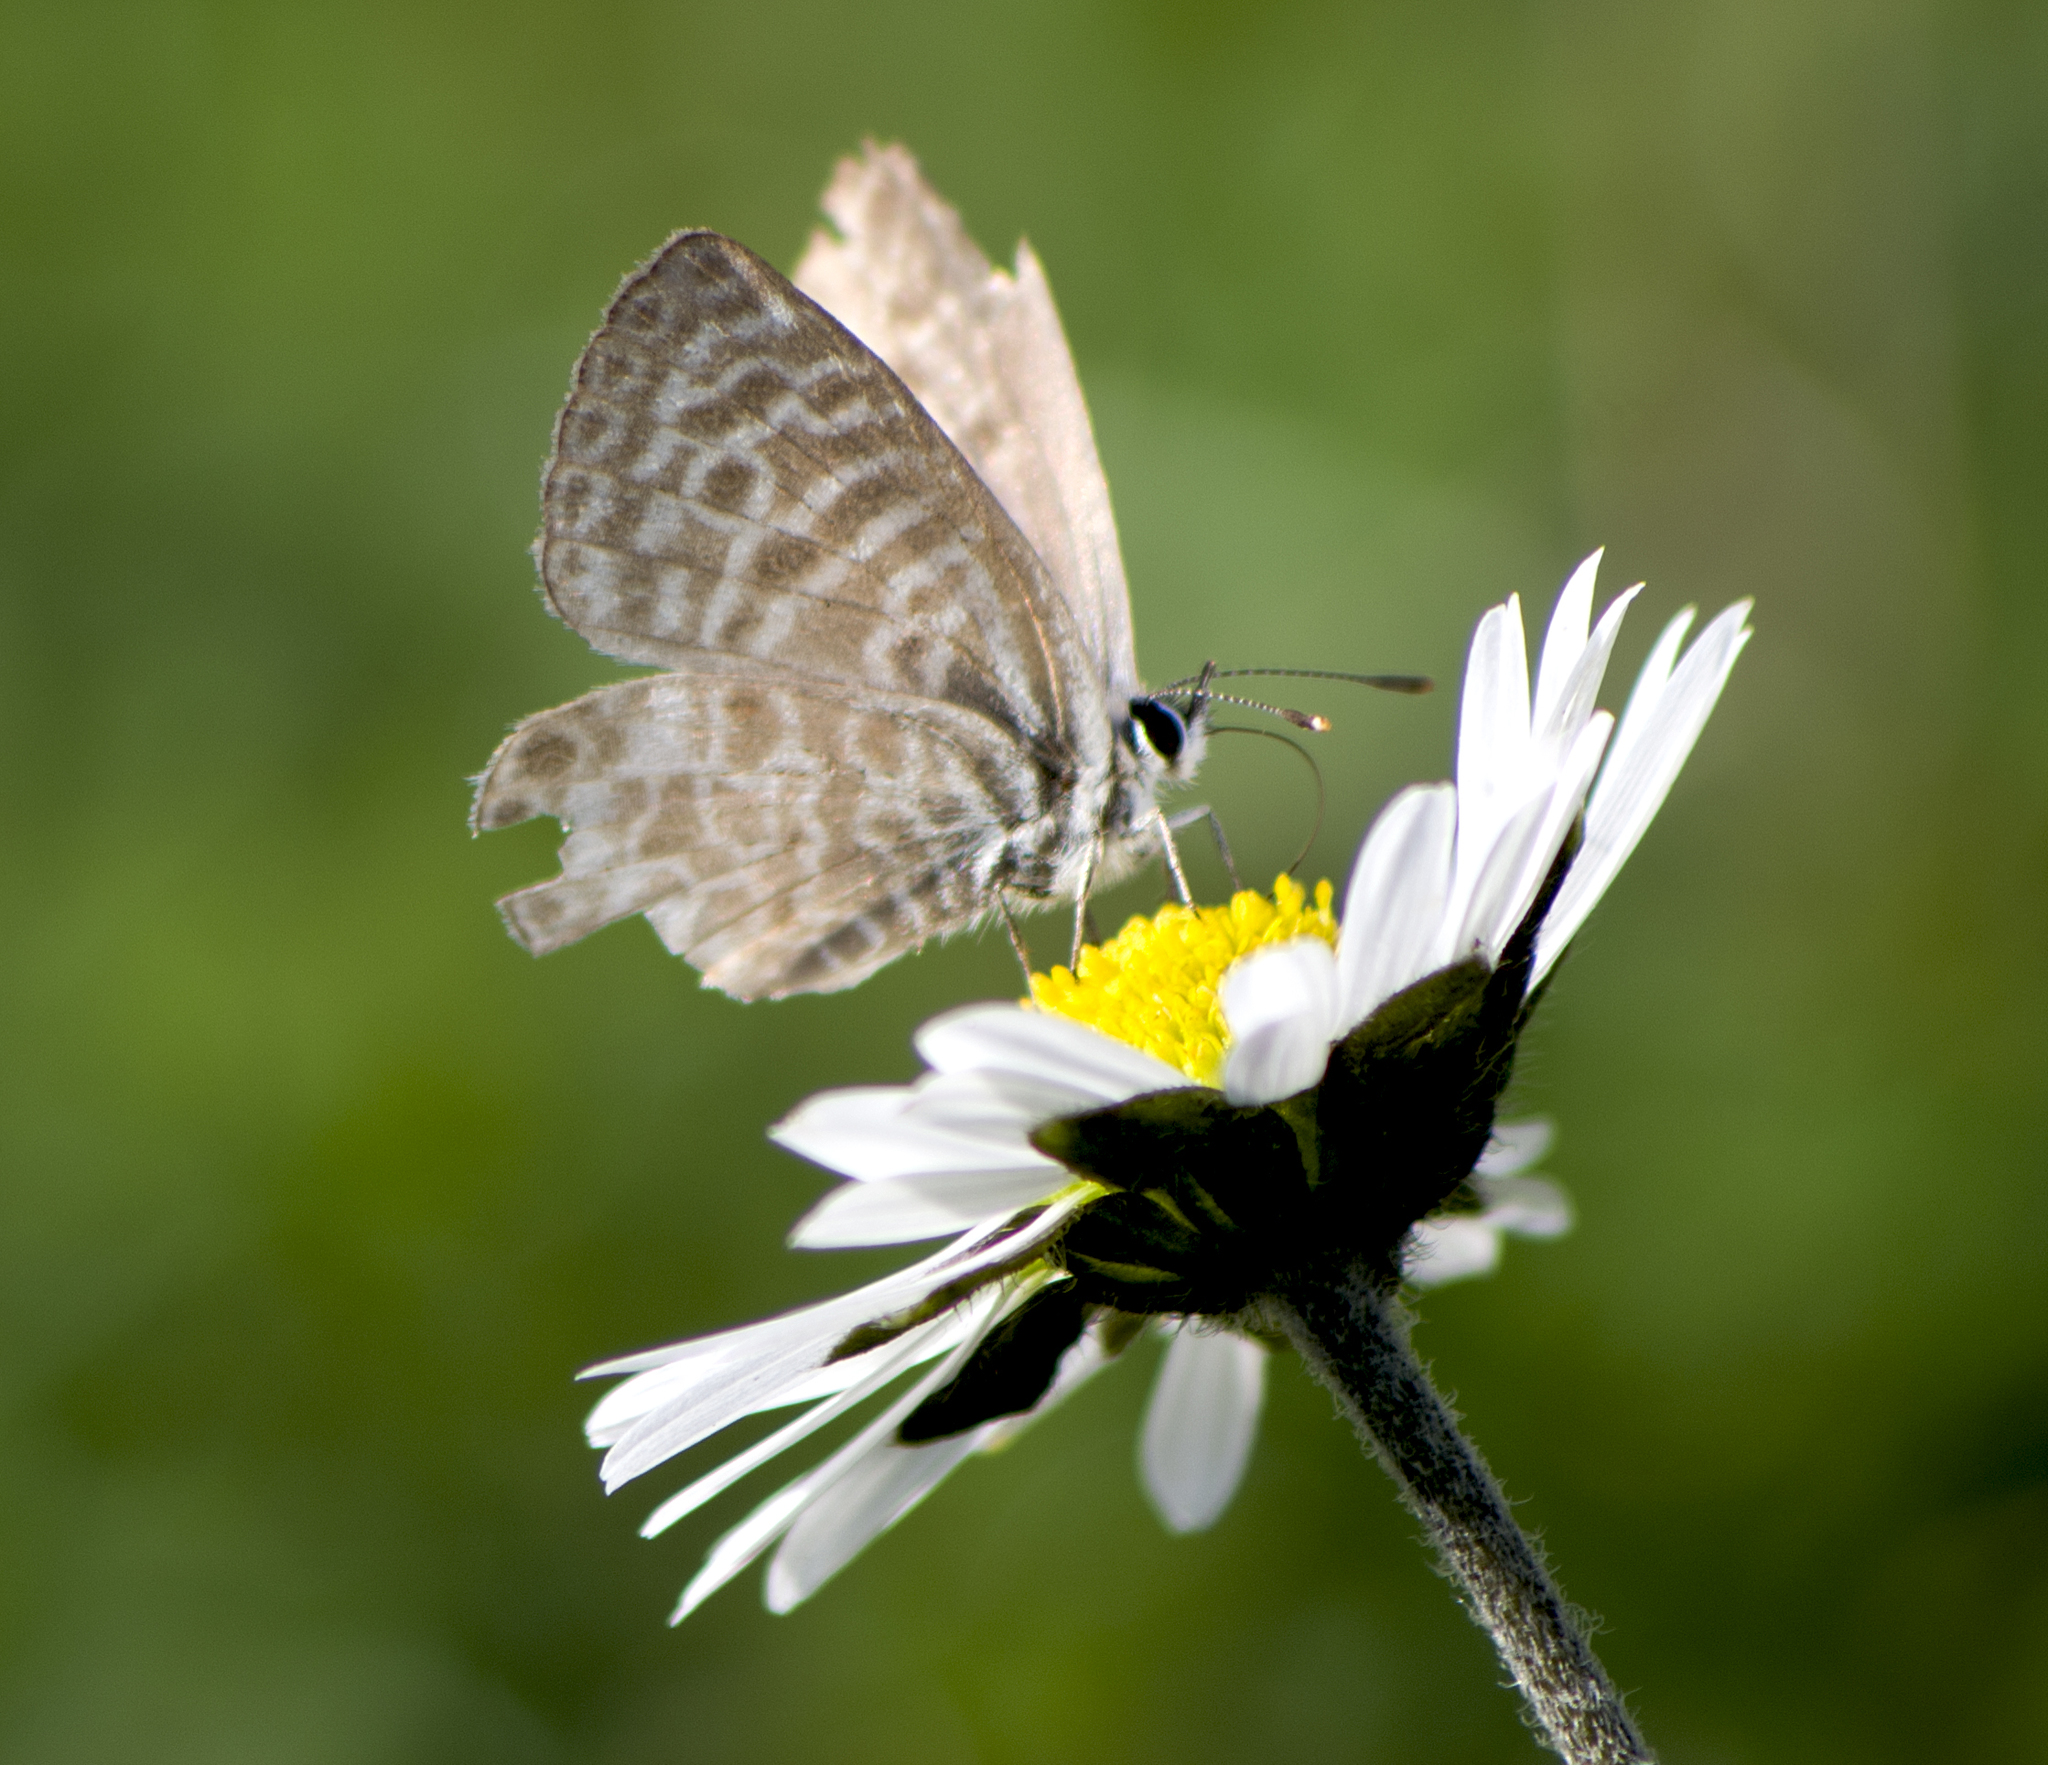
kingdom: Animalia
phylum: Arthropoda
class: Insecta
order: Lepidoptera
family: Lycaenidae
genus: Leptotes
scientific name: Leptotes pirithous
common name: Lang's short-tailed blue
